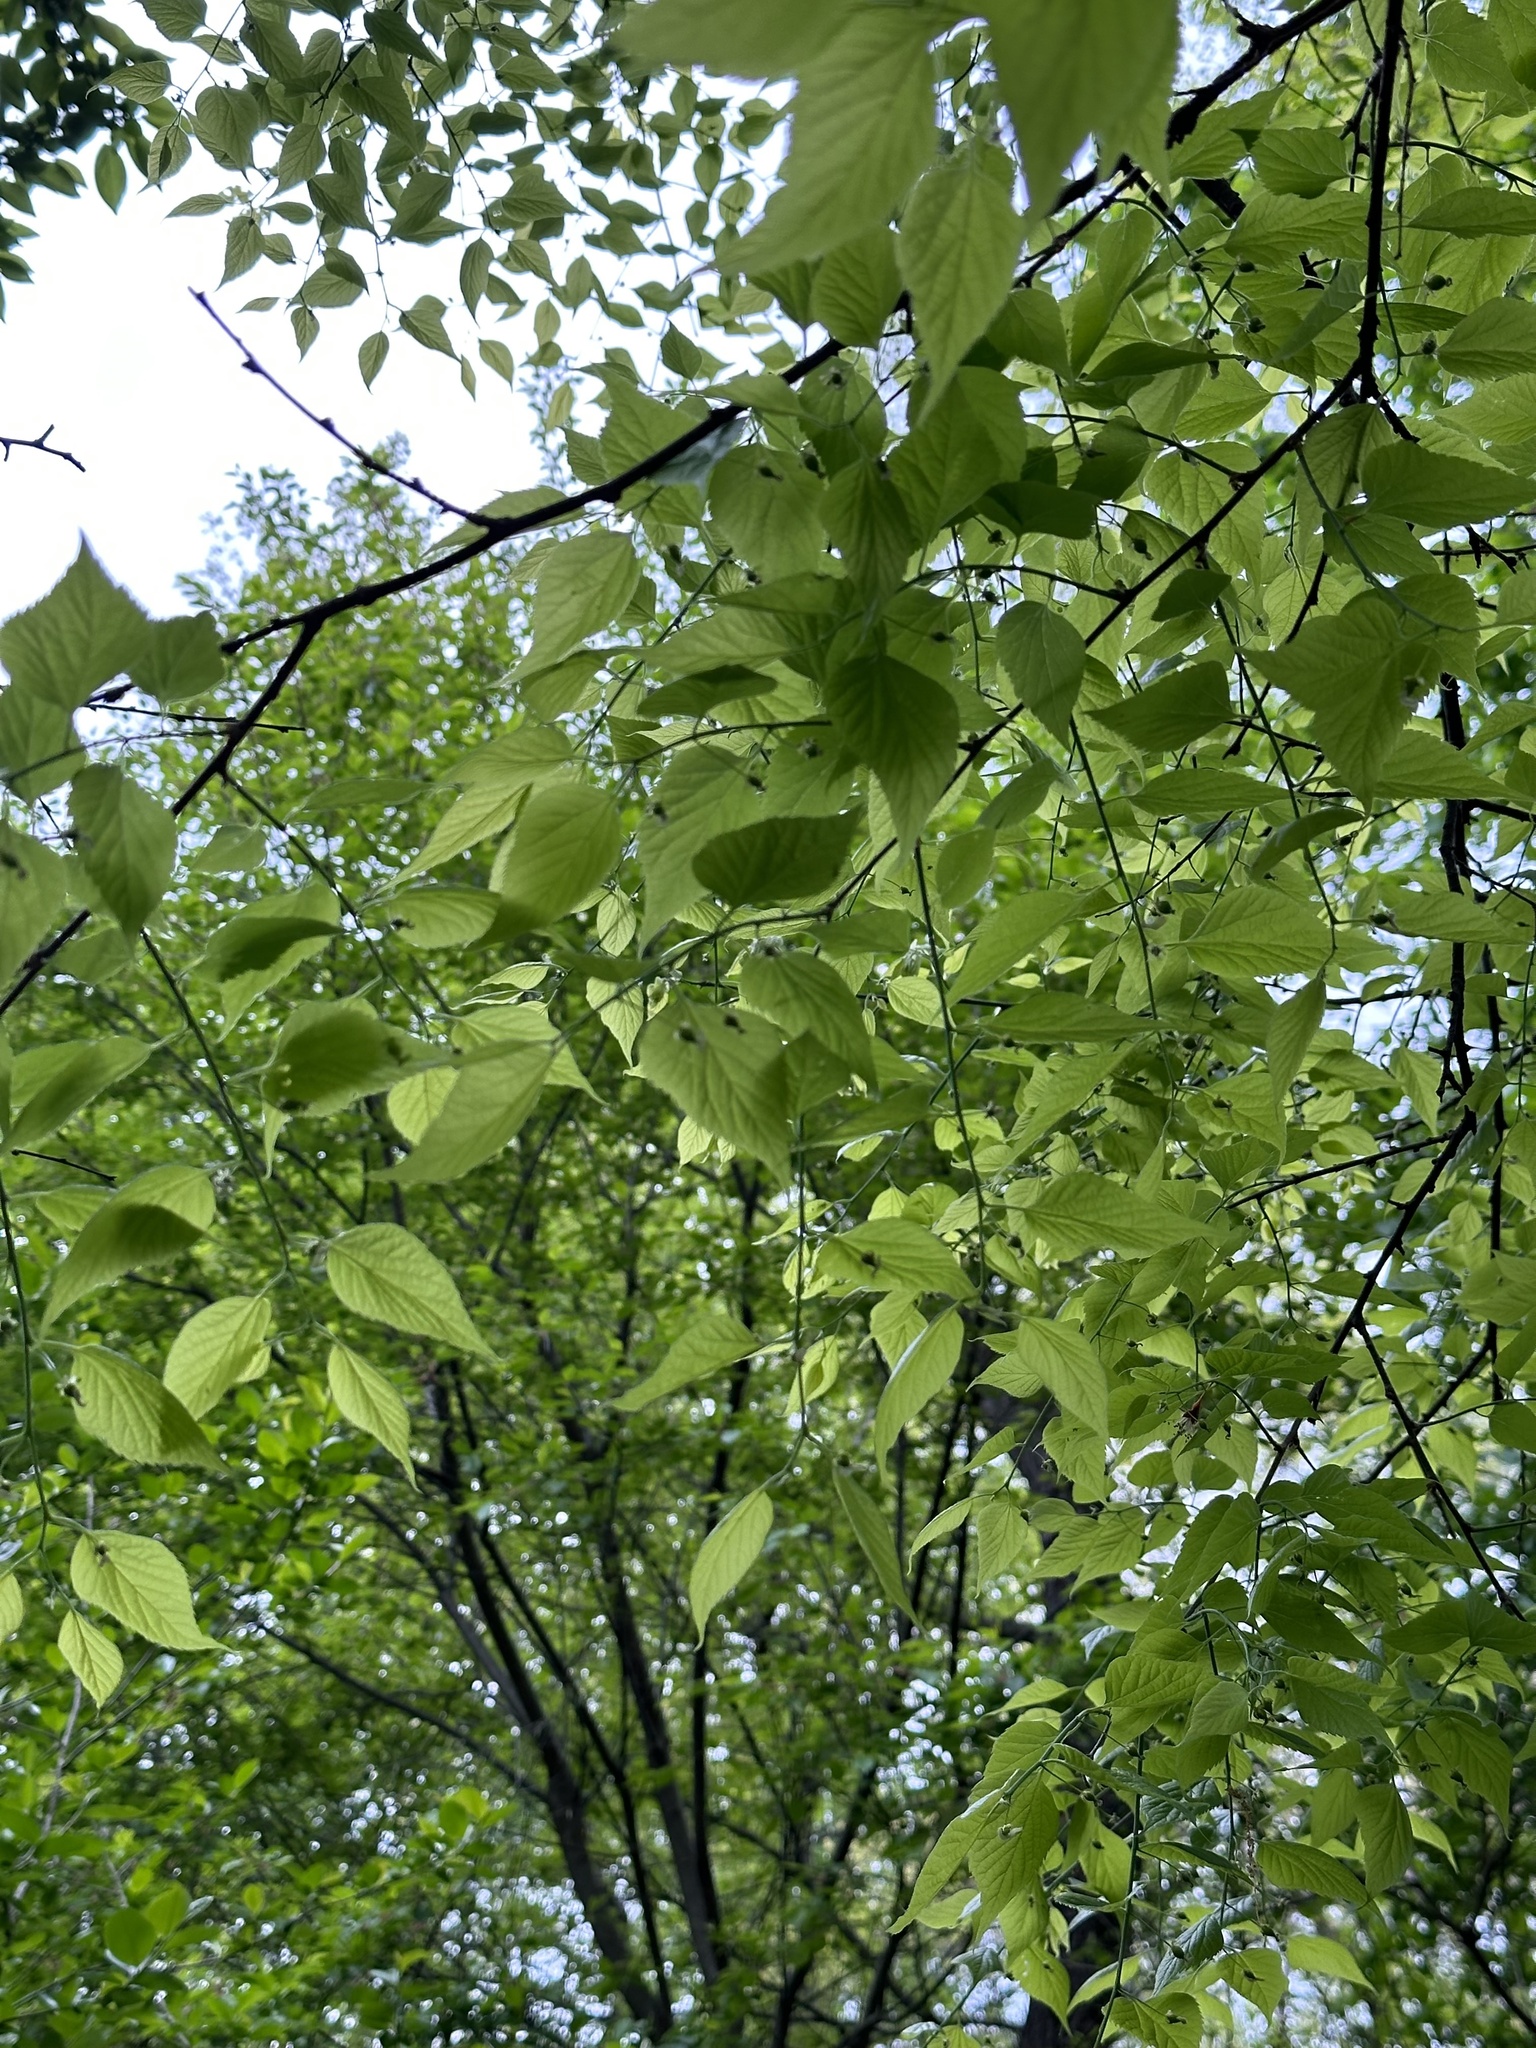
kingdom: Plantae
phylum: Tracheophyta
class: Magnoliopsida
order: Rosales
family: Cannabaceae
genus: Celtis
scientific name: Celtis occidentalis
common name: Common hackberry
